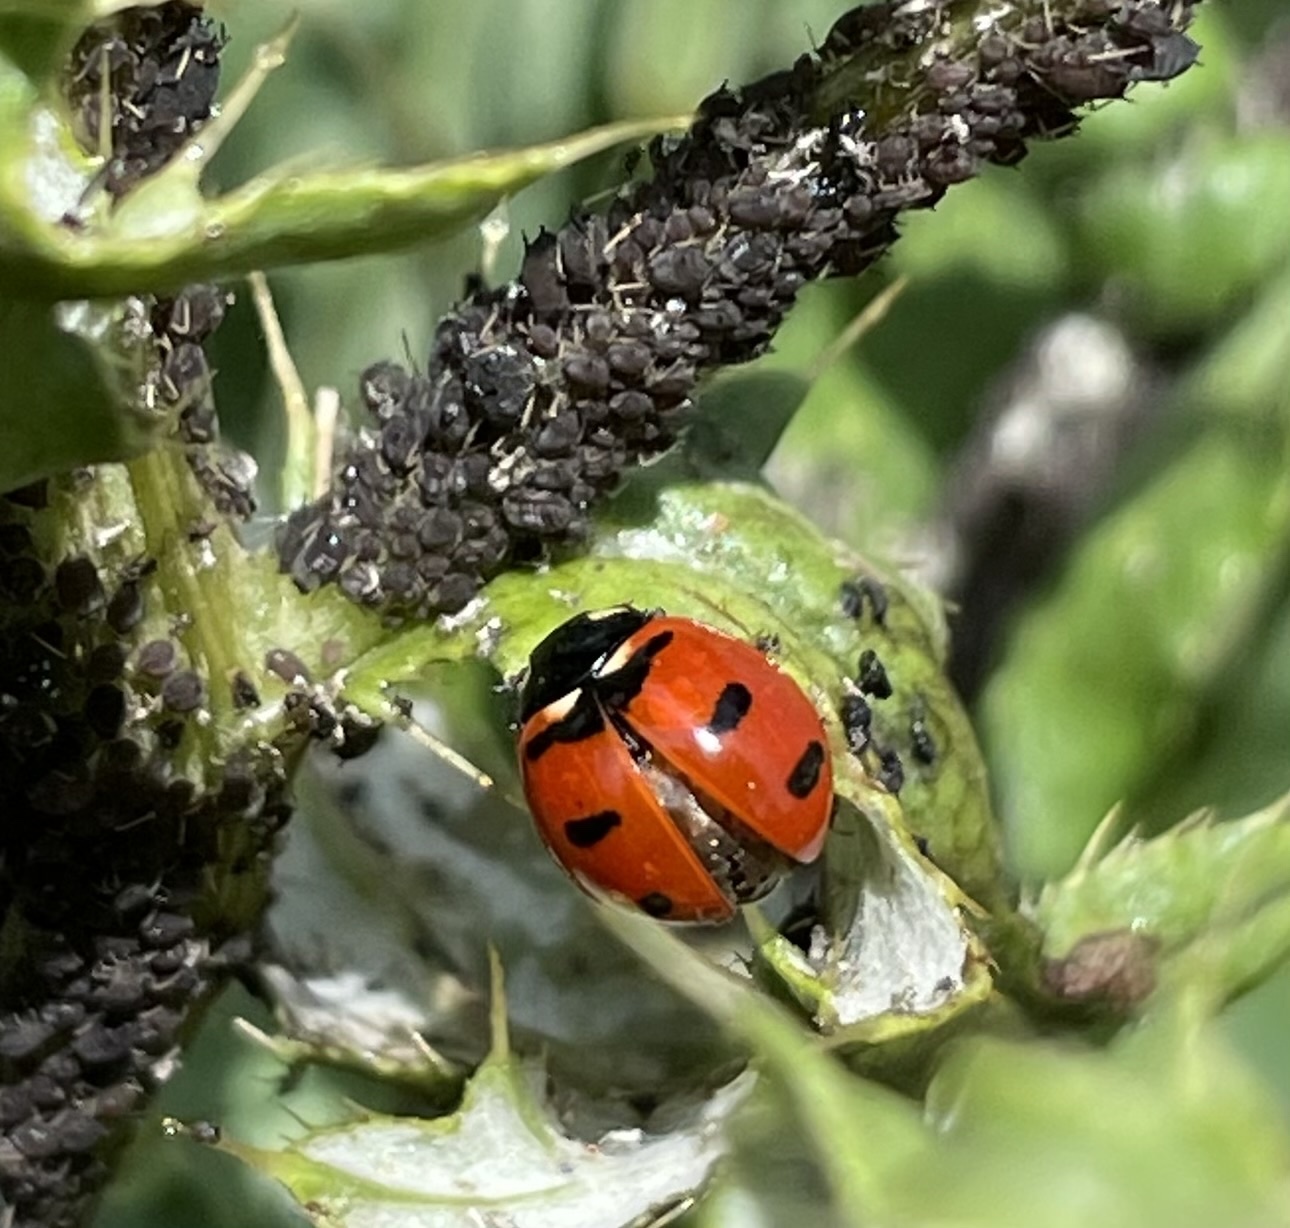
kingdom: Animalia
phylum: Arthropoda
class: Insecta
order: Coleoptera
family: Coccinellidae
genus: Coccinella
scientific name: Coccinella transversoguttata
